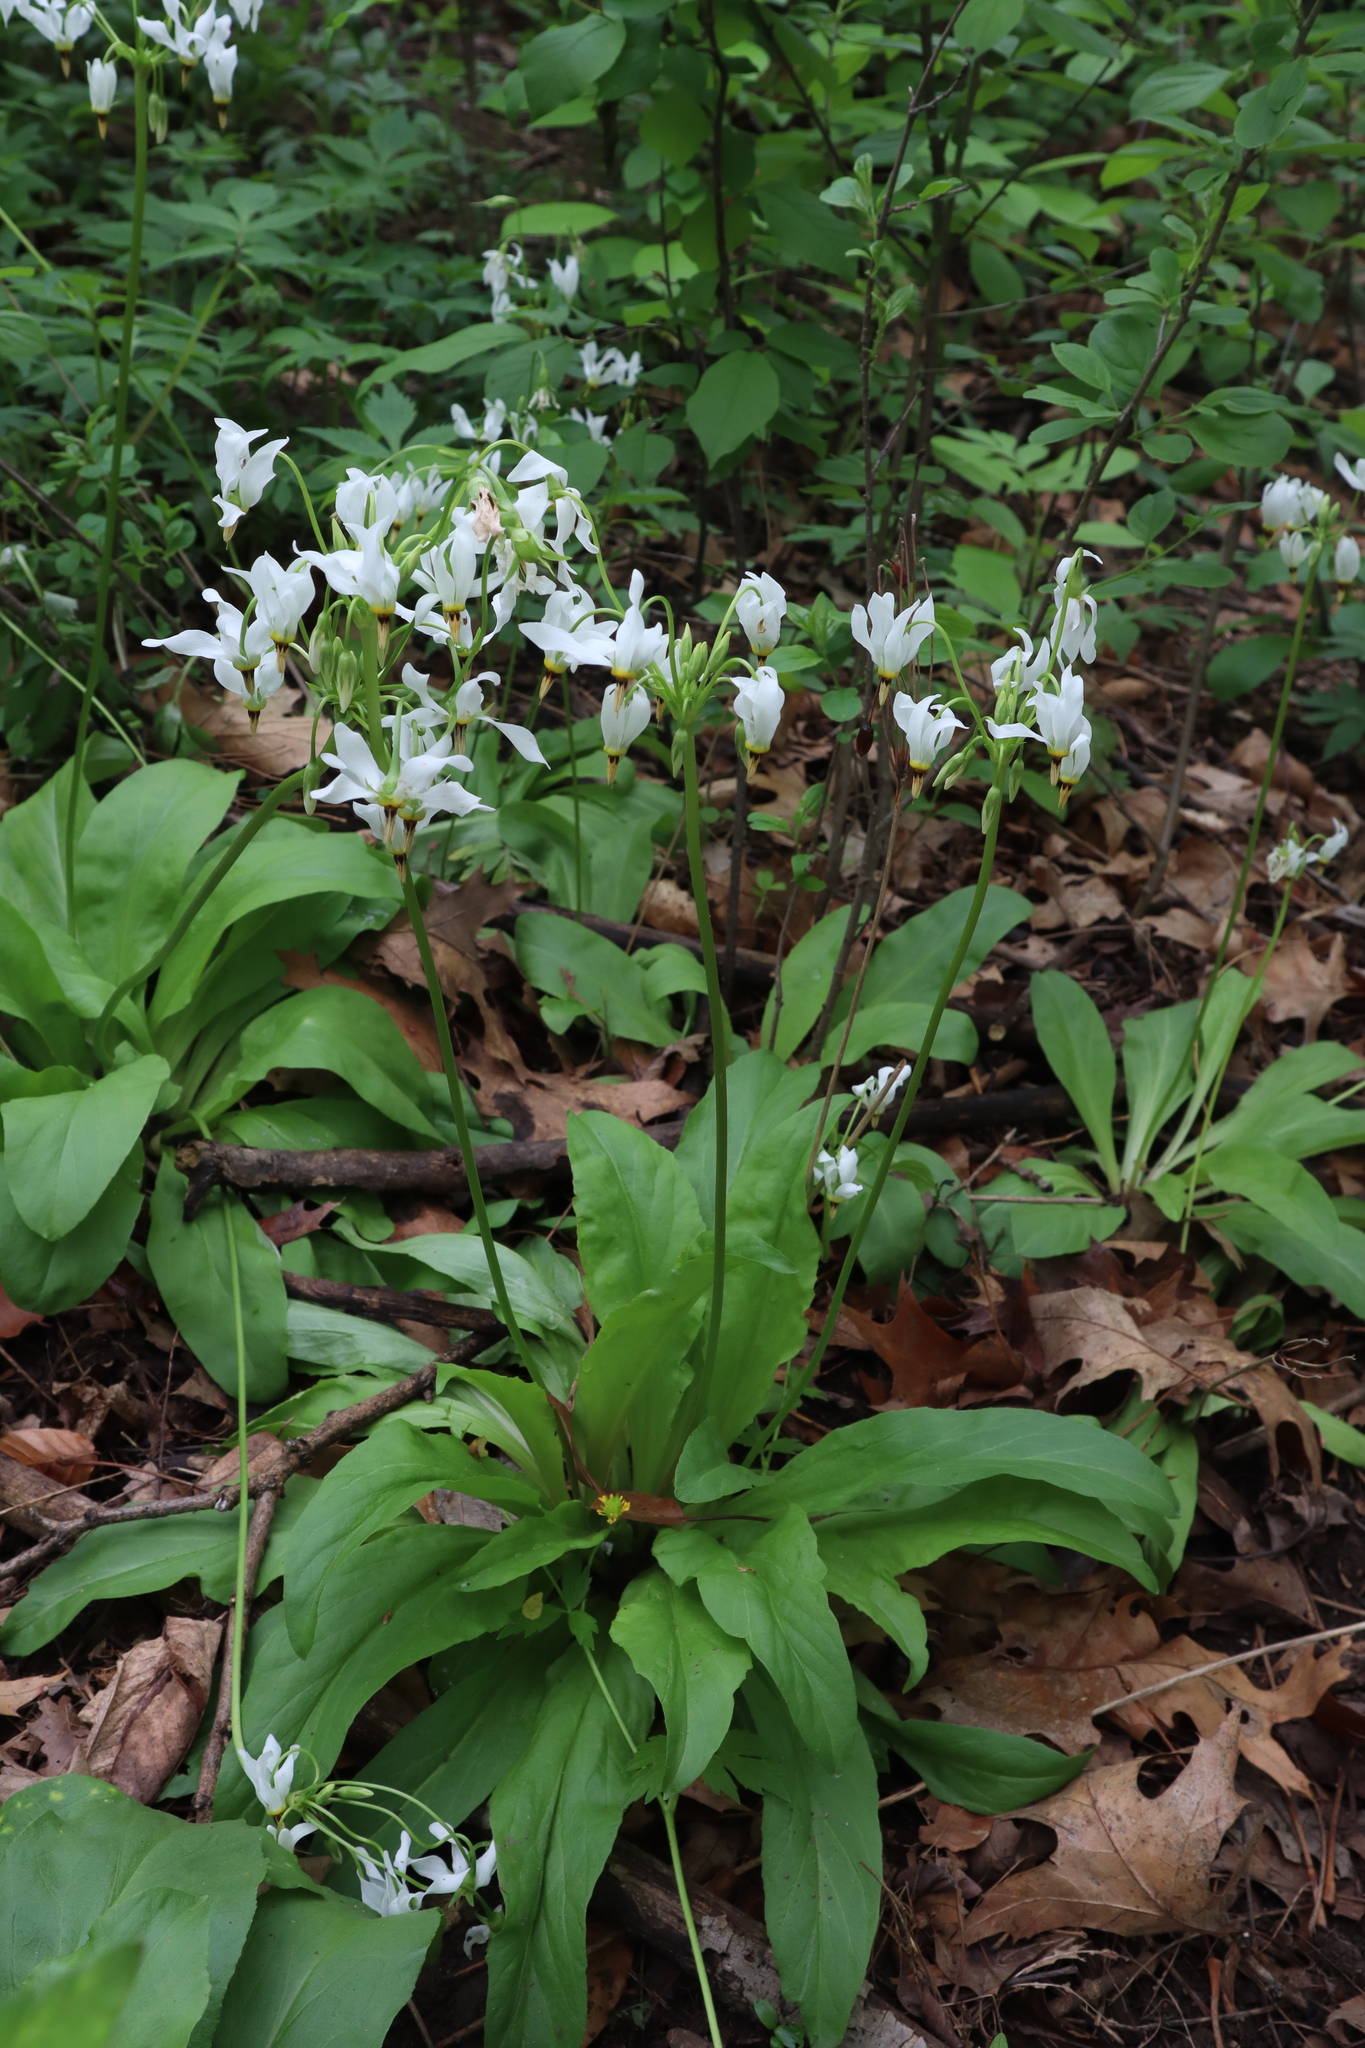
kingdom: Plantae
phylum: Tracheophyta
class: Magnoliopsida
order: Ericales
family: Primulaceae
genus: Dodecatheon
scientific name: Dodecatheon meadia
